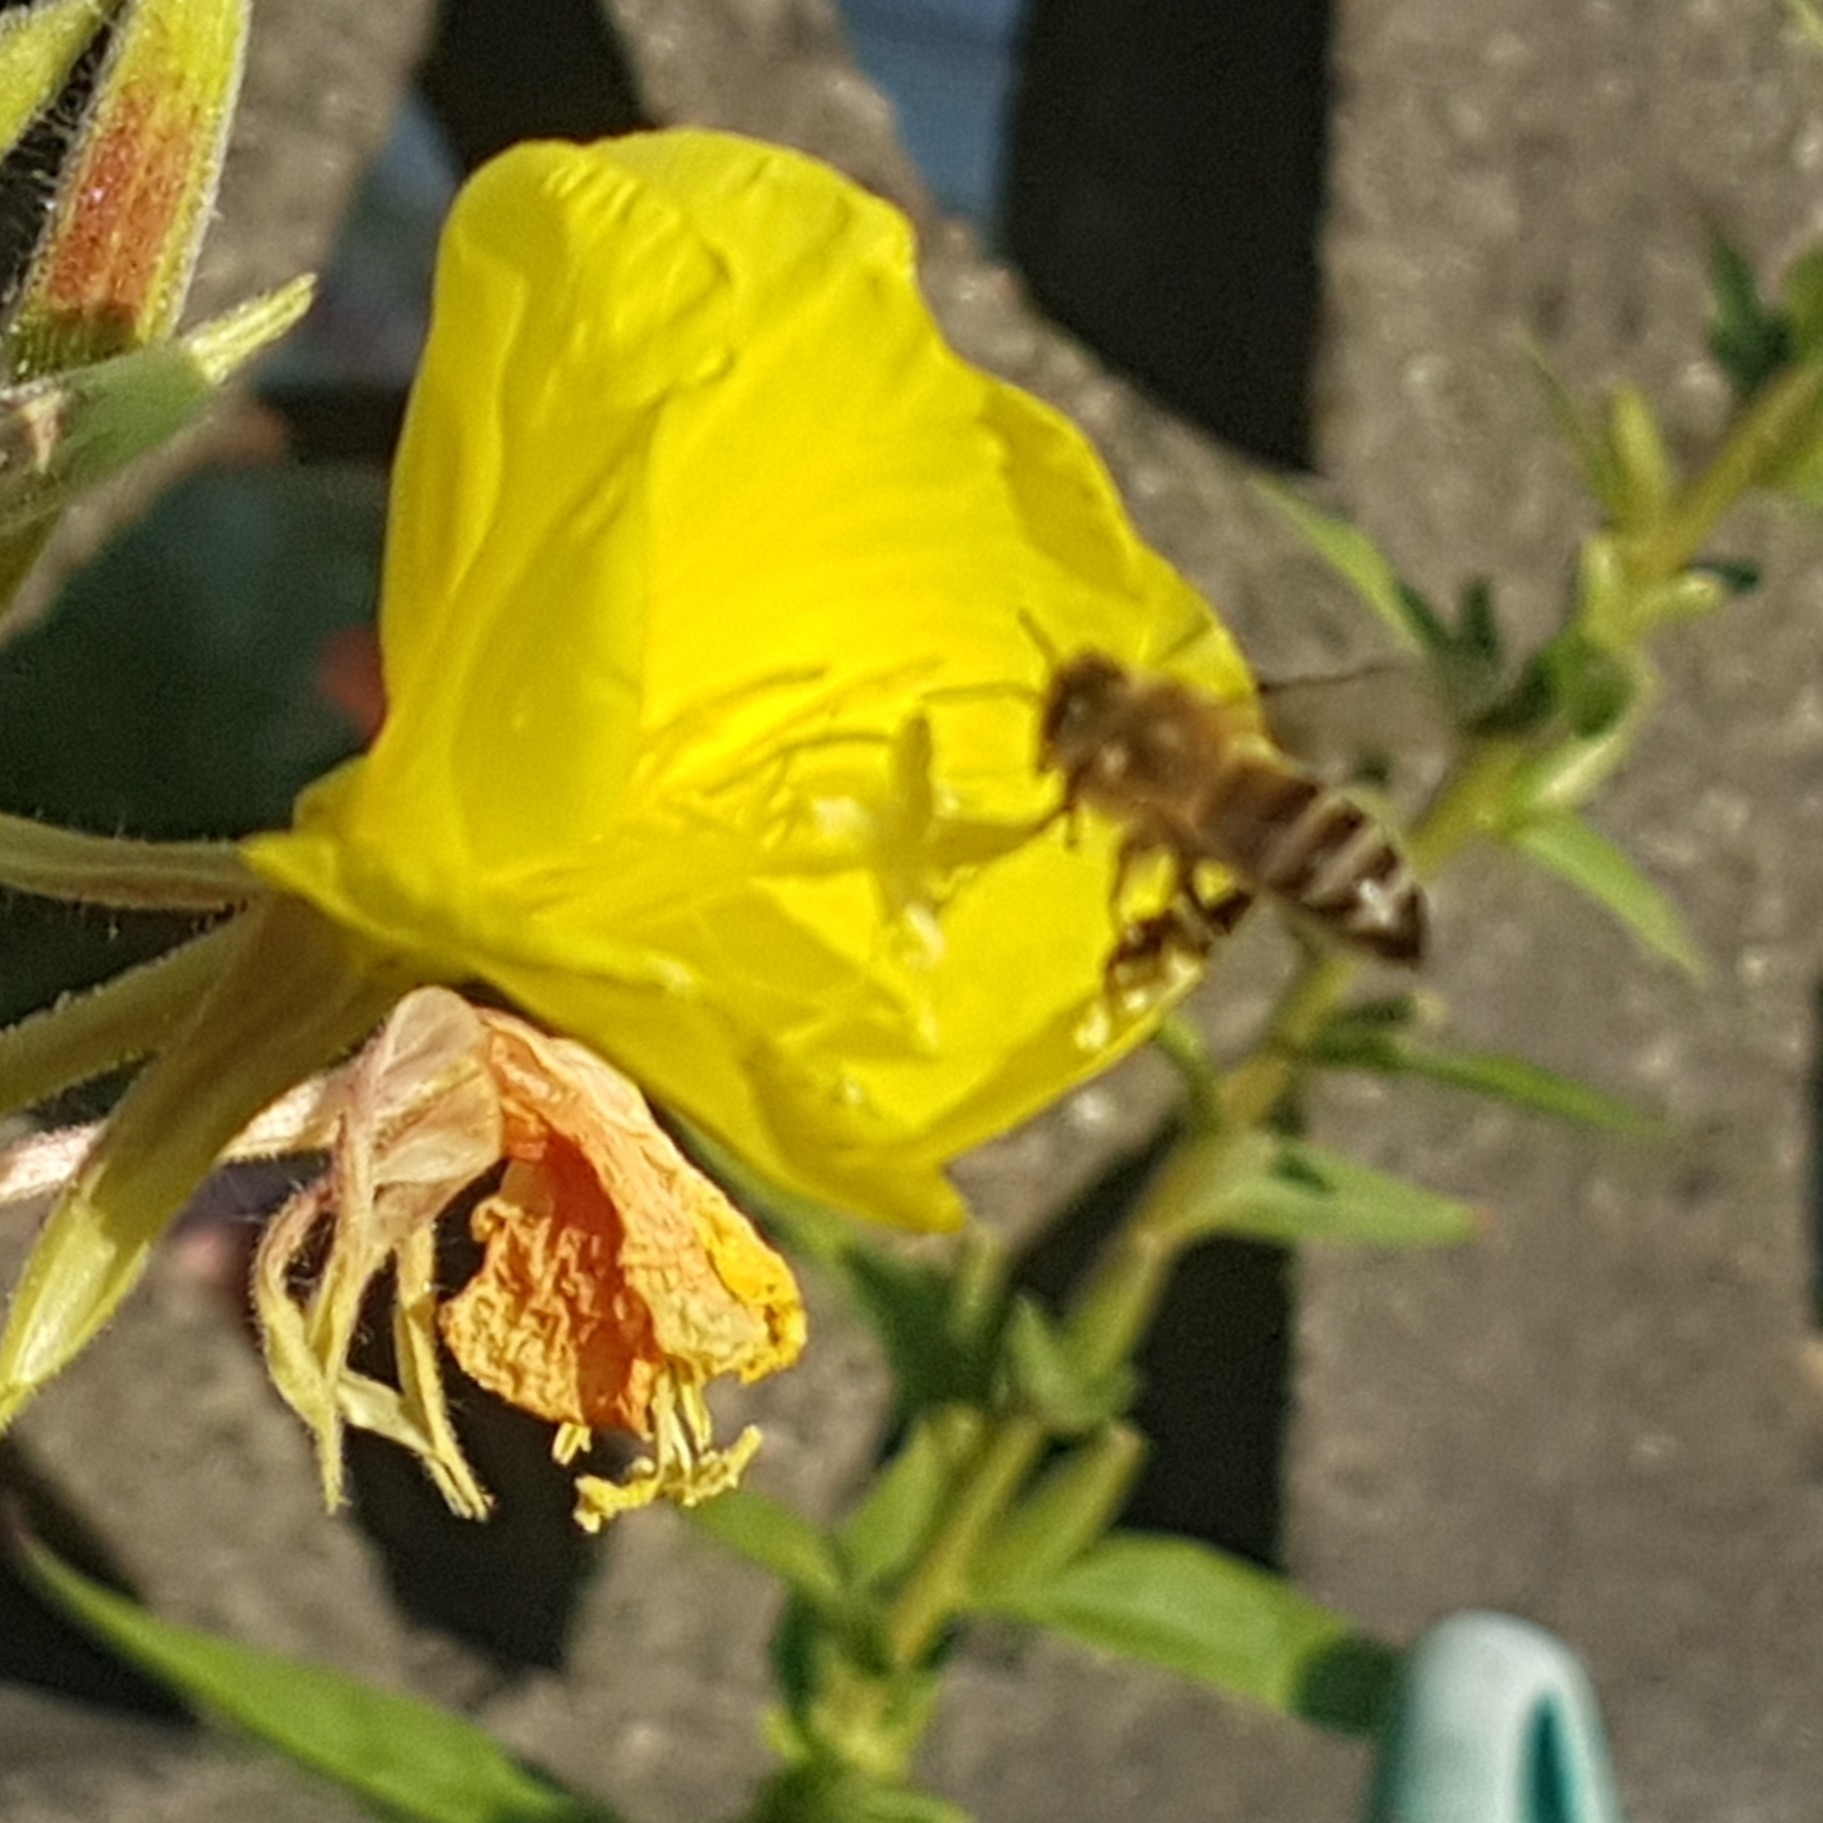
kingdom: Animalia
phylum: Arthropoda
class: Insecta
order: Hymenoptera
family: Apidae
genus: Apis
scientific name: Apis mellifera
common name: Honey bee
